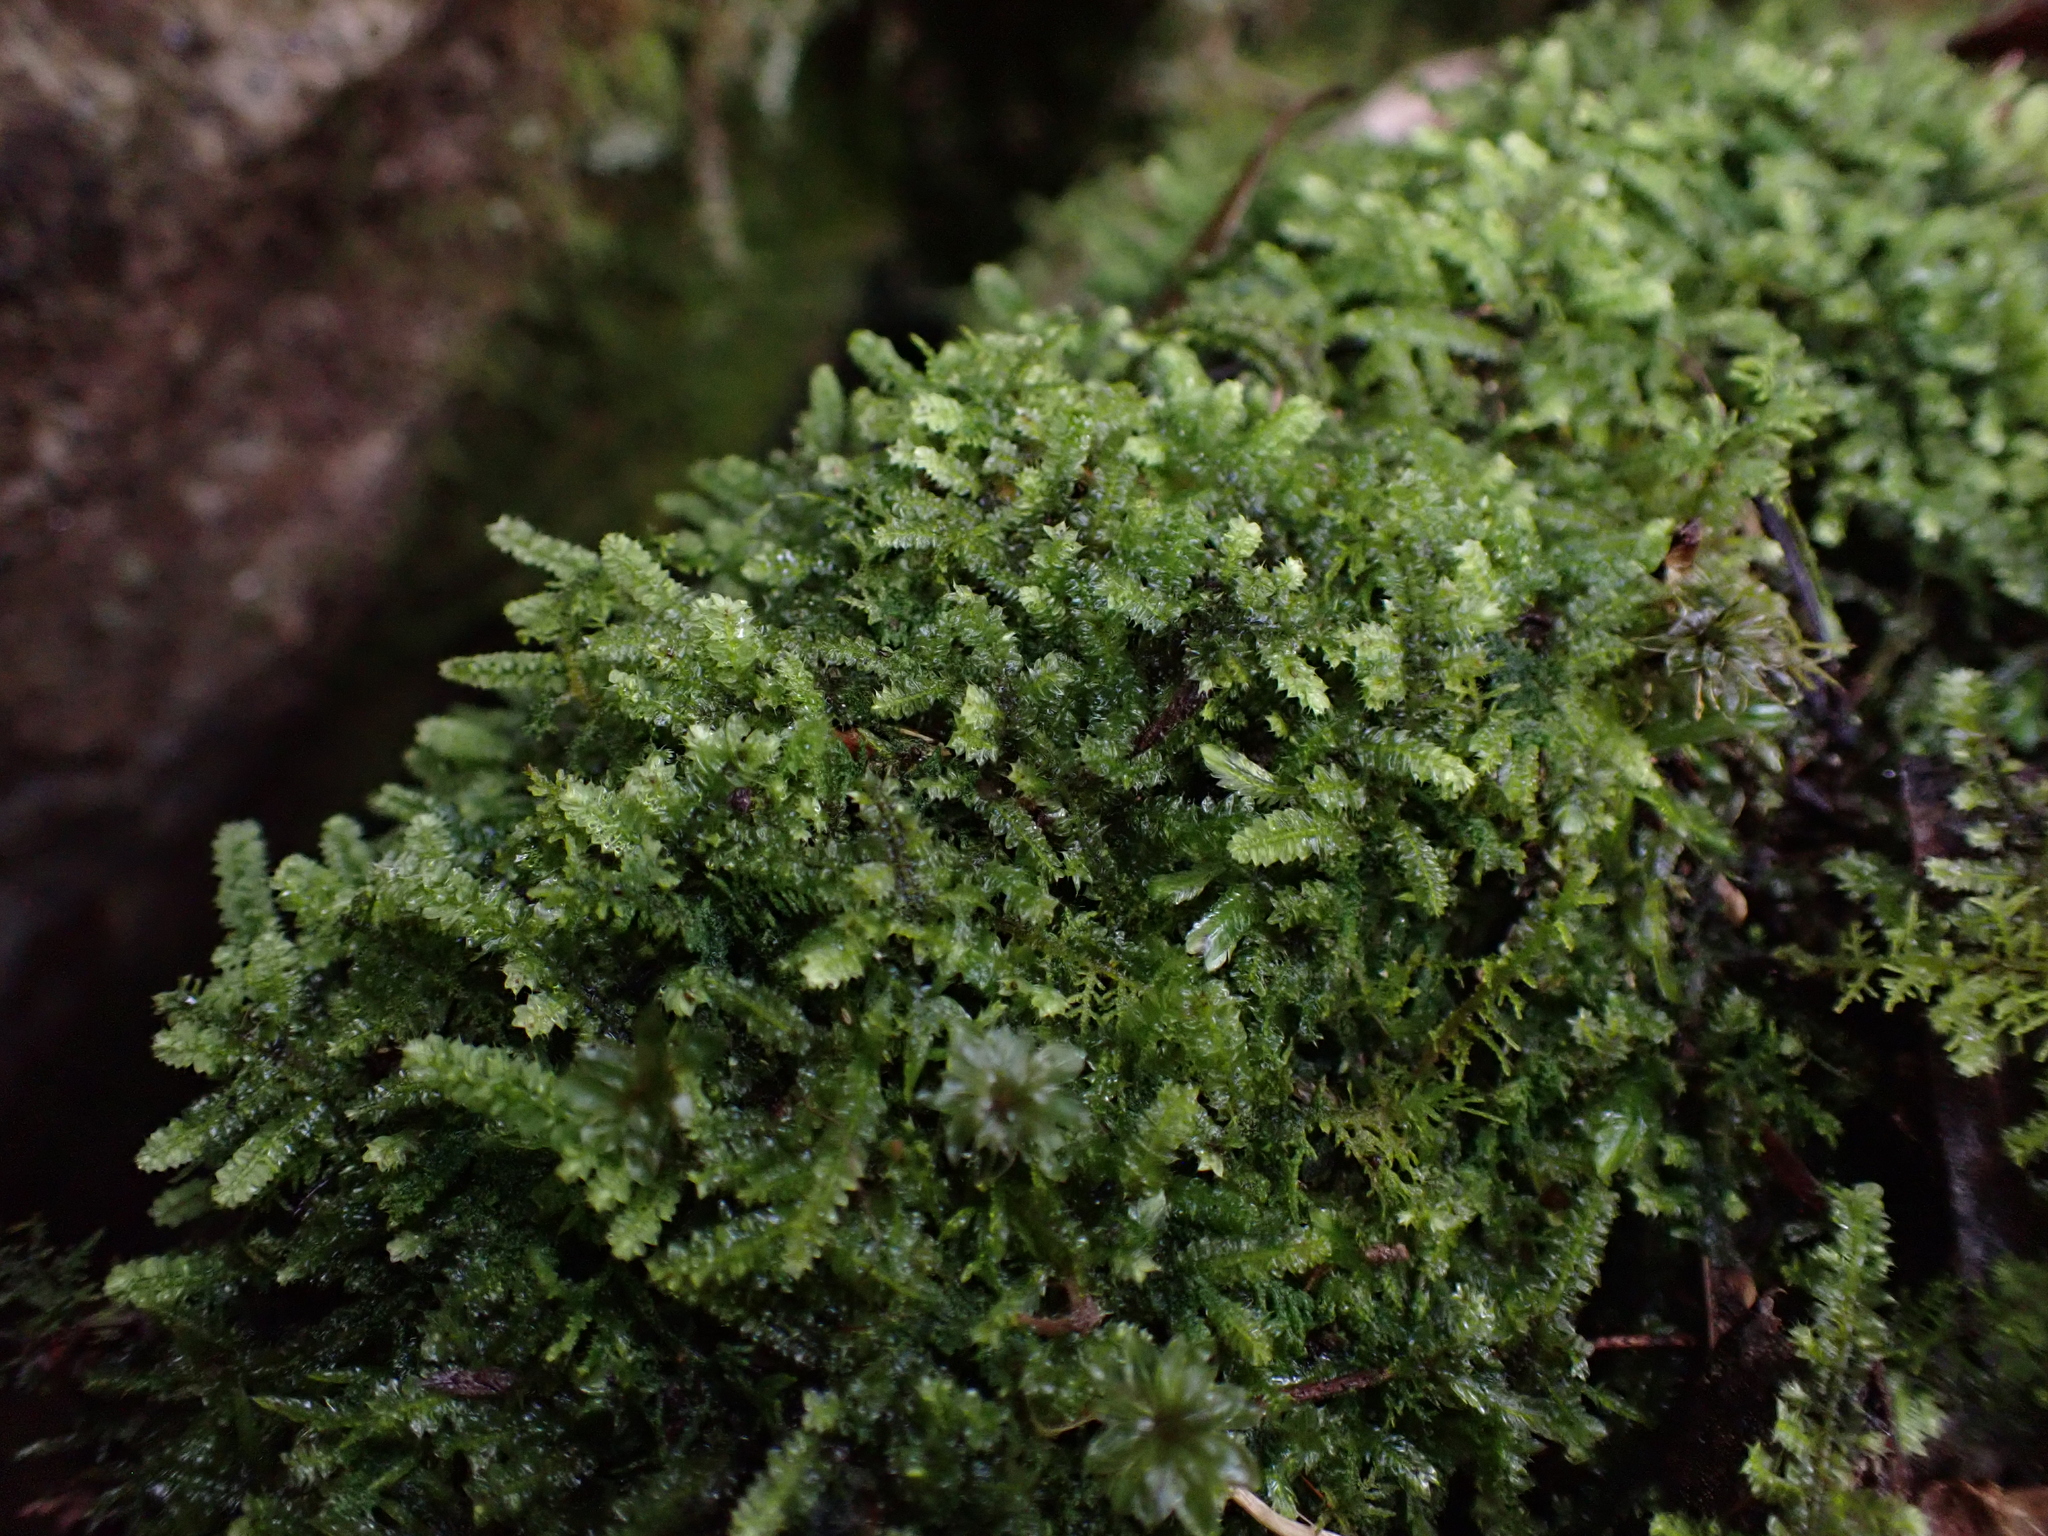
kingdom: Plantae
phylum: Bryophyta
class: Bryopsida
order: Hypnodendrales
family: Racopilaceae
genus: Racopilum
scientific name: Racopilum cuspidigerum
